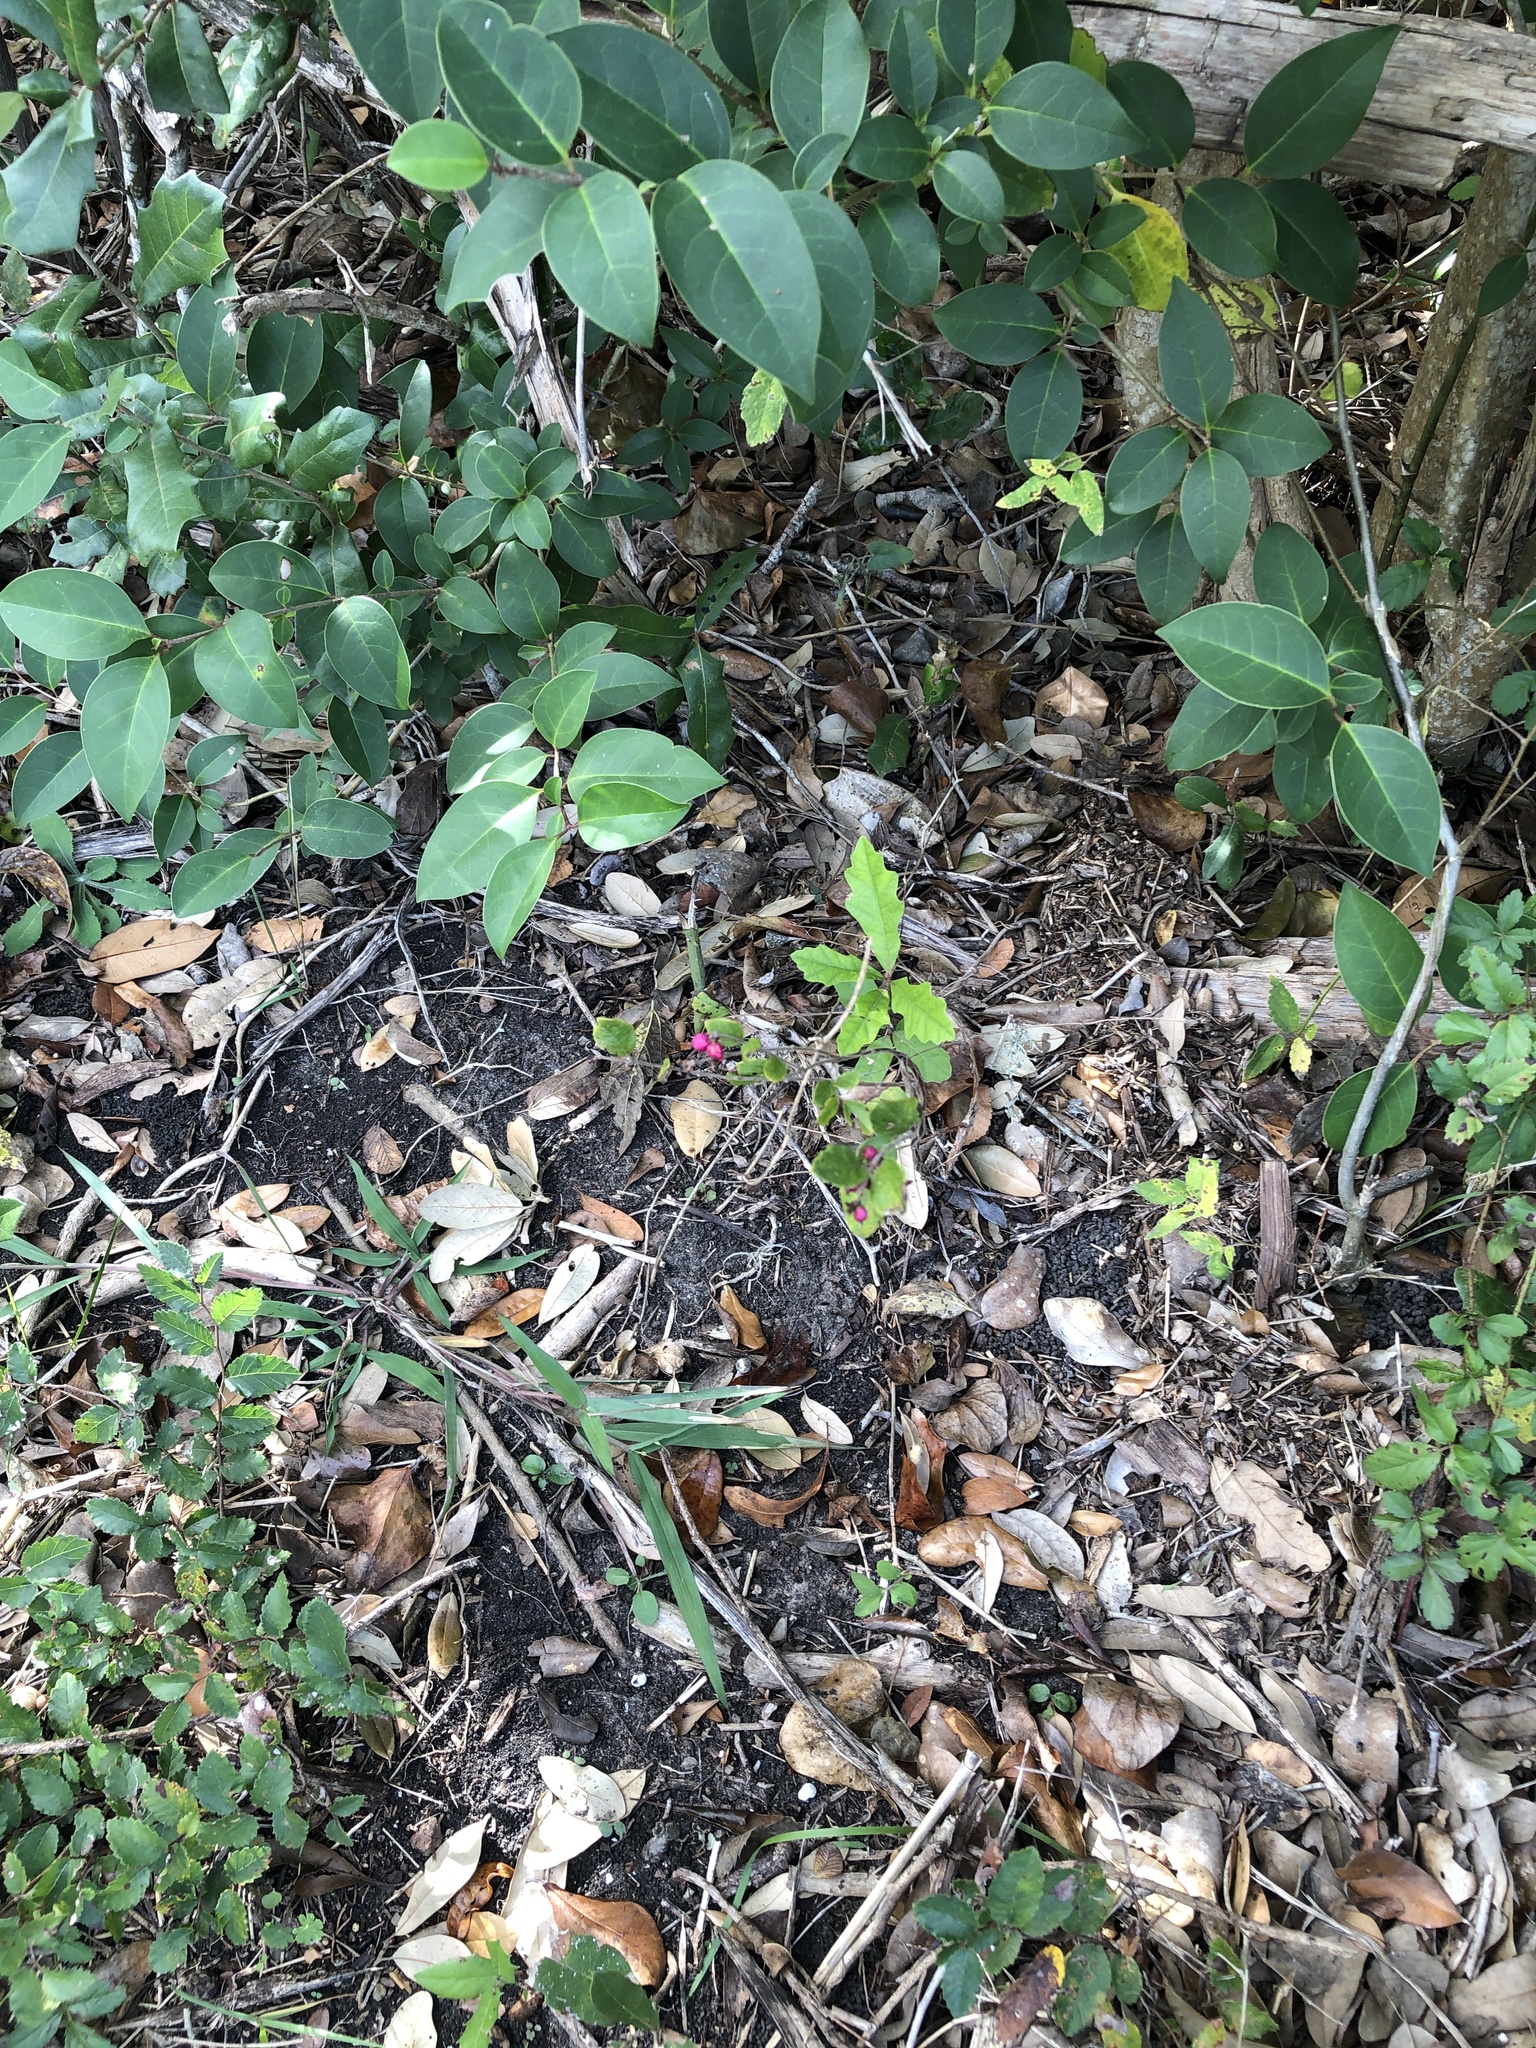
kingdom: Plantae
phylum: Tracheophyta
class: Magnoliopsida
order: Dipsacales
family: Caprifoliaceae
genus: Symphoricarpos
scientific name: Symphoricarpos orbiculatus
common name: Coralberry
